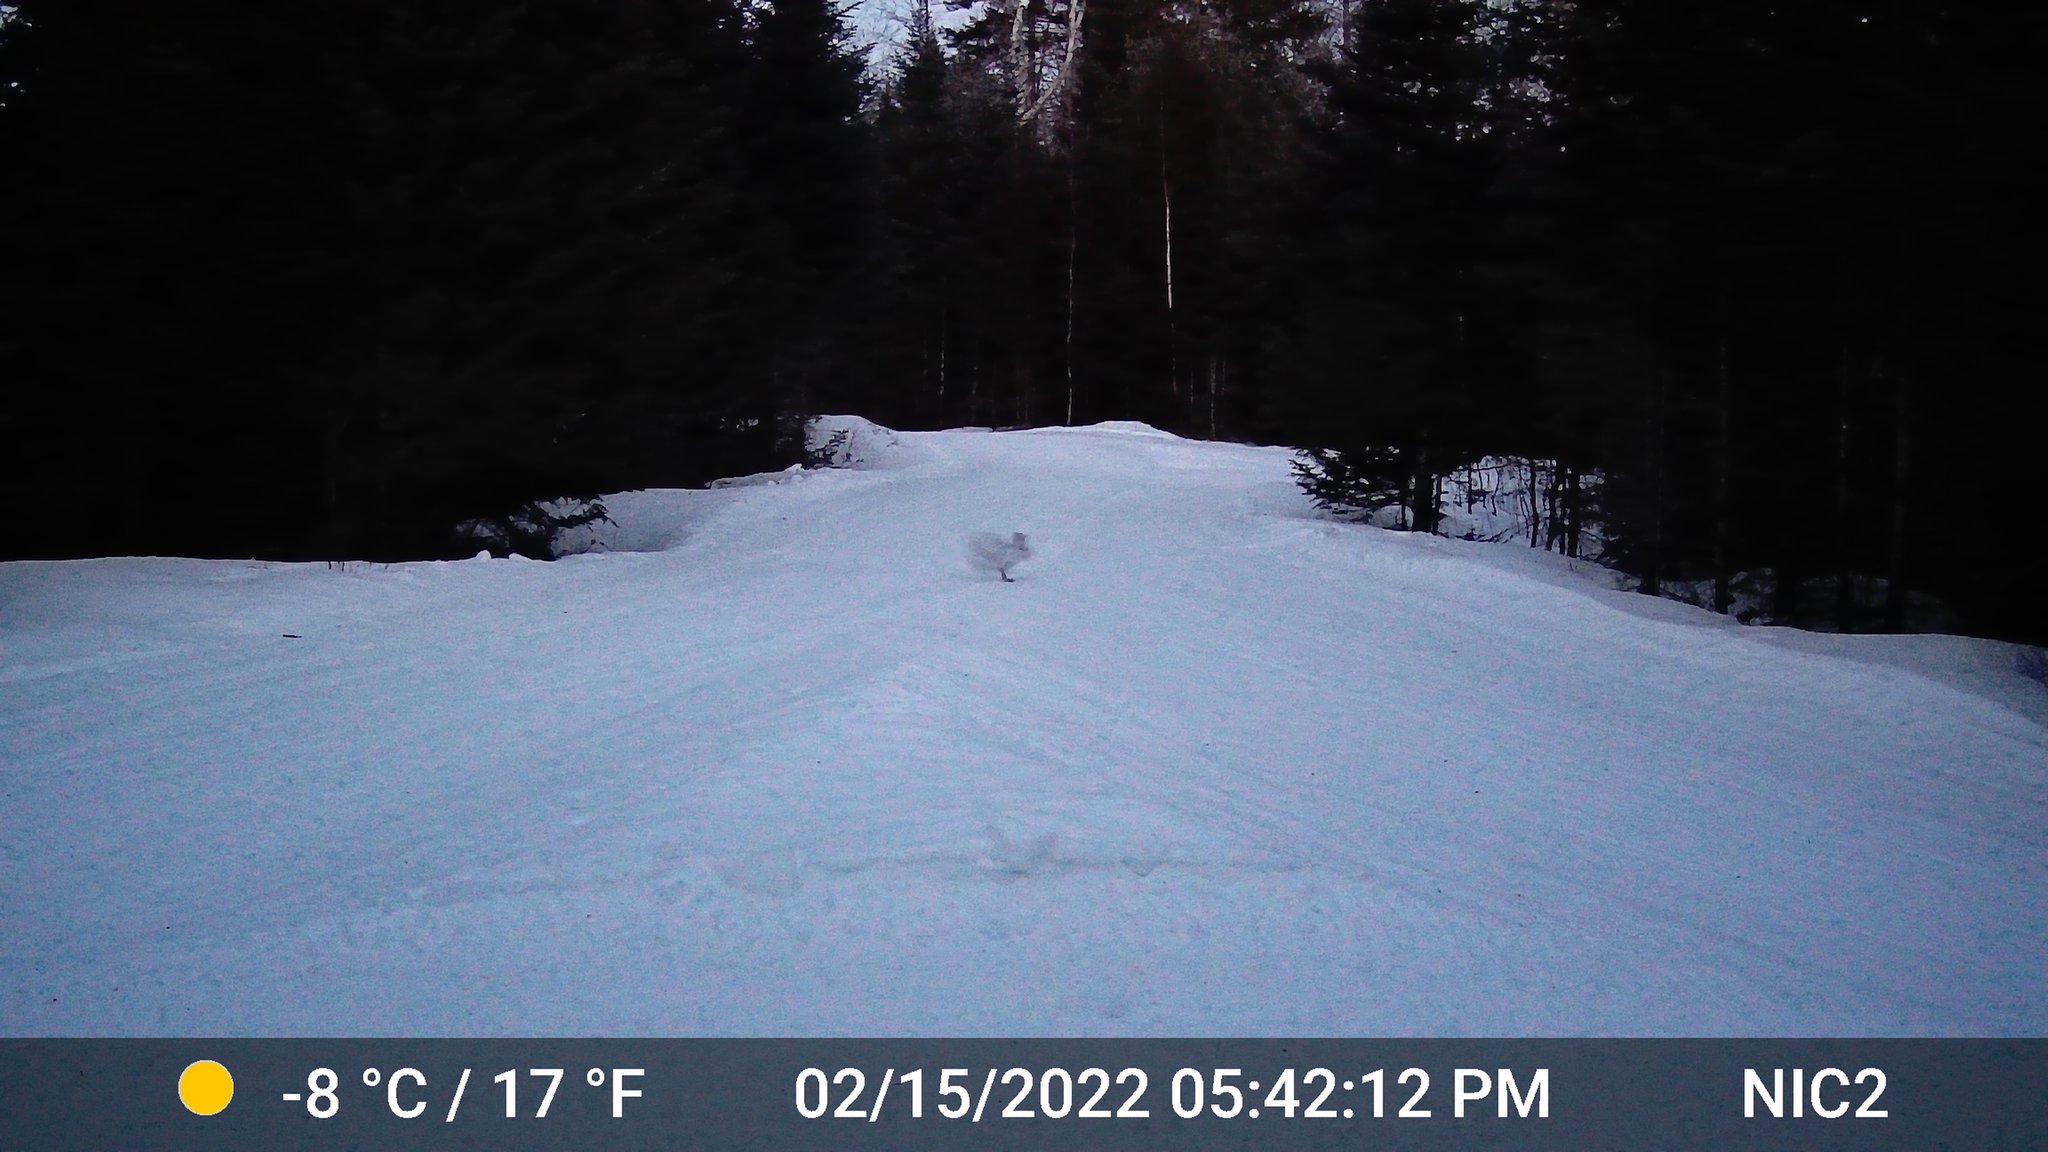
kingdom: Animalia
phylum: Chordata
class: Mammalia
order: Lagomorpha
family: Leporidae
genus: Lepus
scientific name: Lepus americanus
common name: Snowshoe hare
